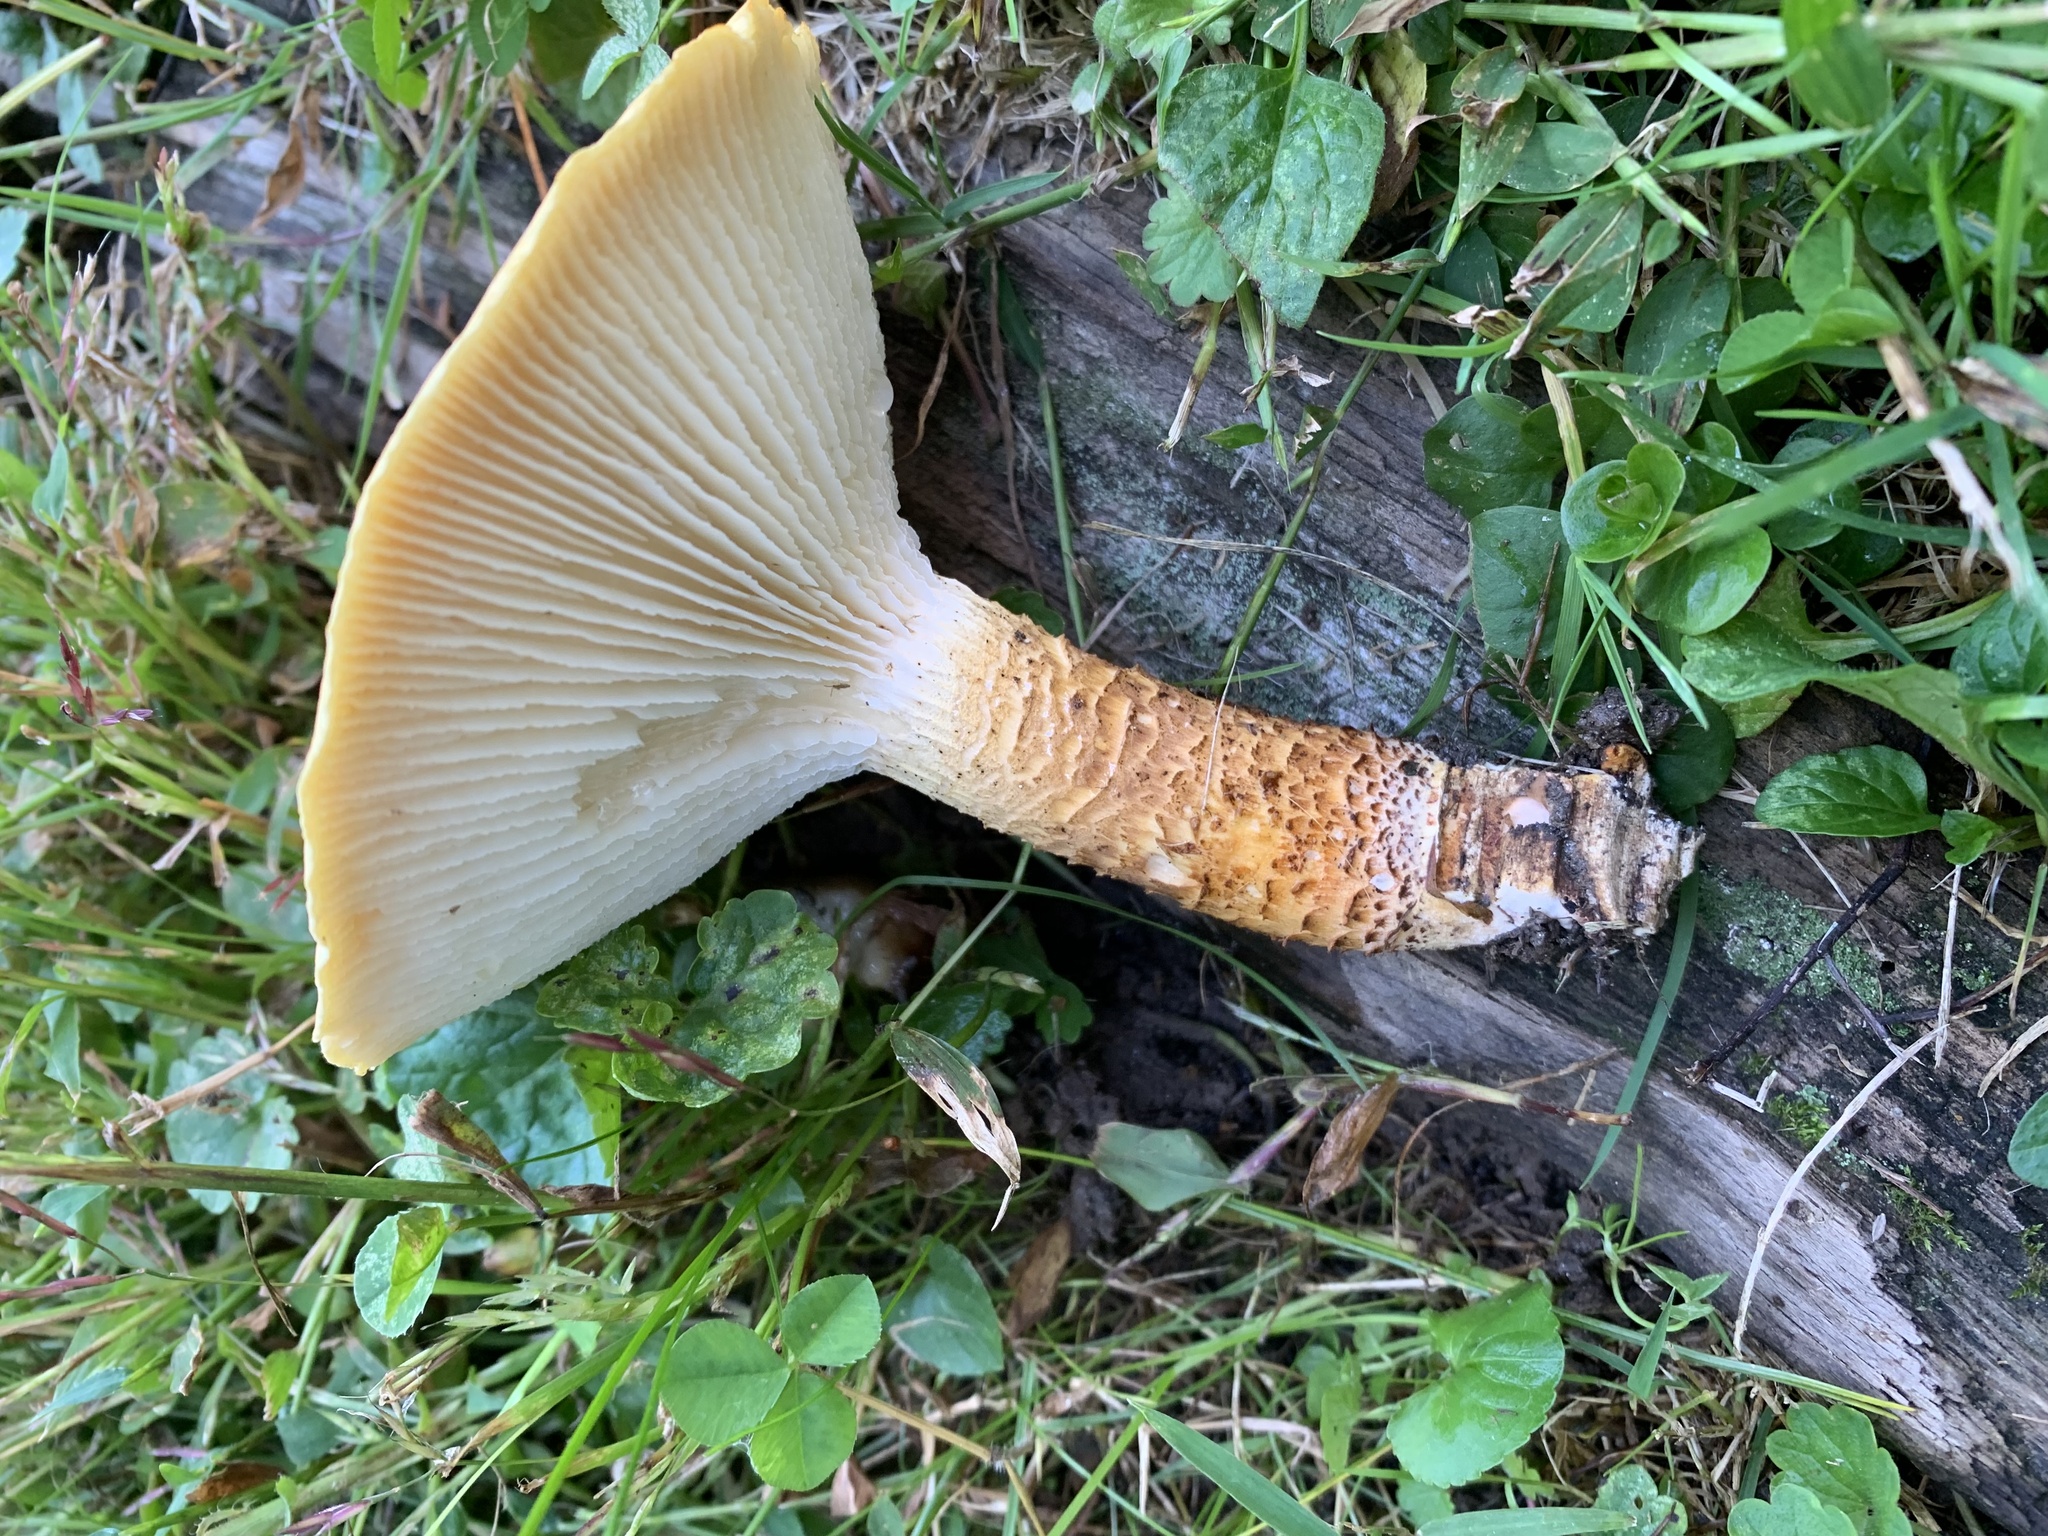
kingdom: Fungi
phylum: Basidiomycota
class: Agaricomycetes
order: Gloeophyllales
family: Gloeophyllaceae
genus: Neolentinus
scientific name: Neolentinus lepideus
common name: Scaly sawgill
